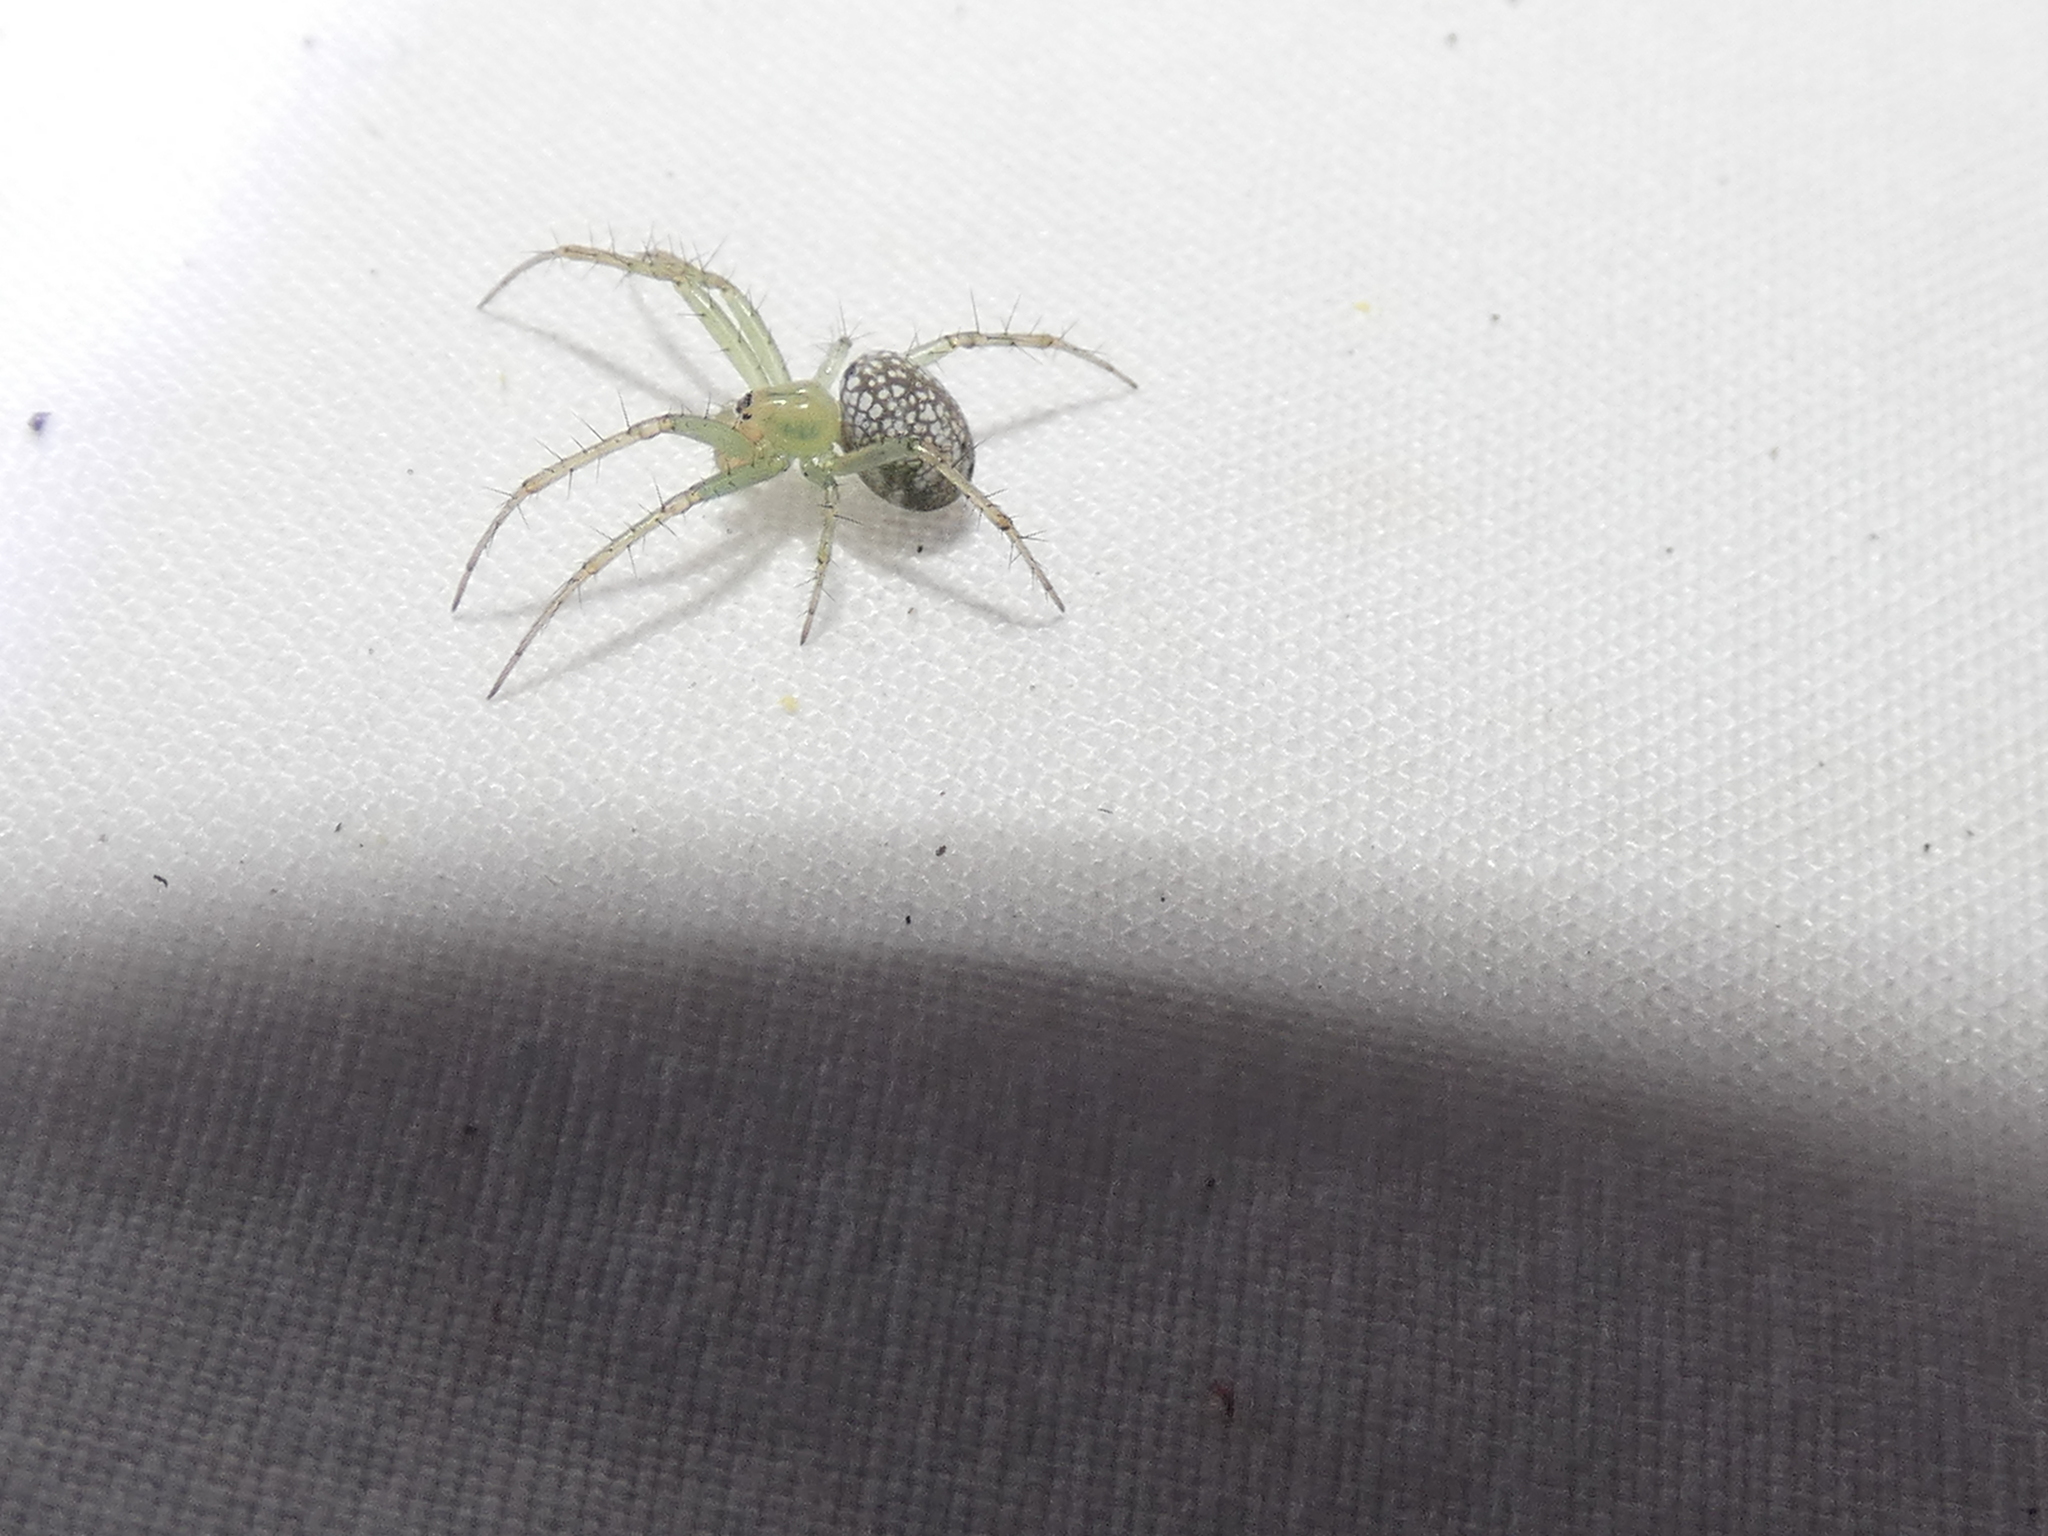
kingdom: Animalia
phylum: Arthropoda
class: Arachnida
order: Araneae
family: Araneidae
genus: Mangora
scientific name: Mangora maculata
